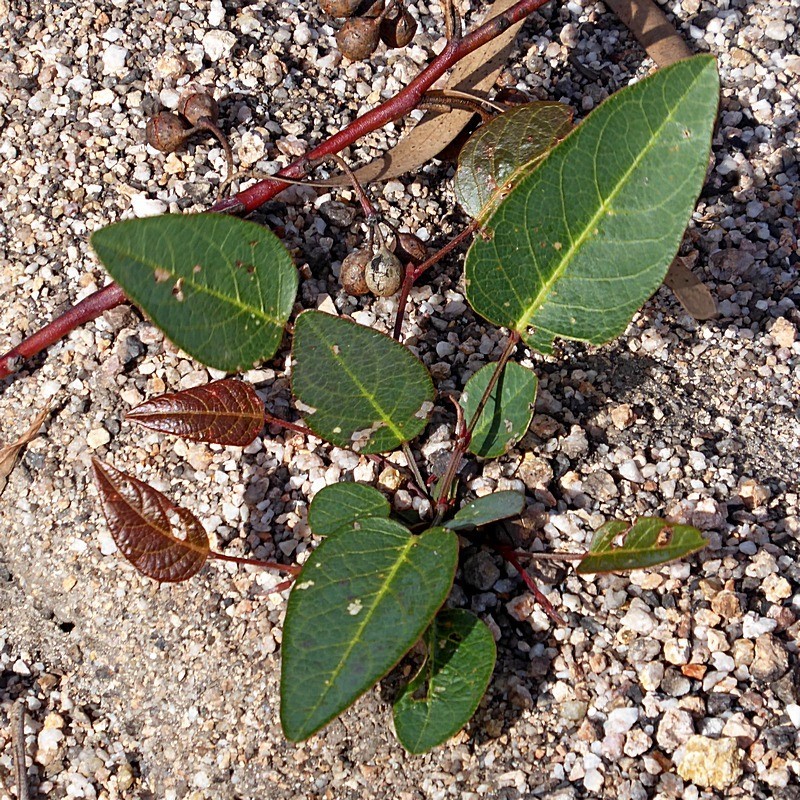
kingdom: Plantae
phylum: Tracheophyta
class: Magnoliopsida
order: Fabales
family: Fabaceae
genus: Hardenbergia
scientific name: Hardenbergia violacea
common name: Coral-pea
